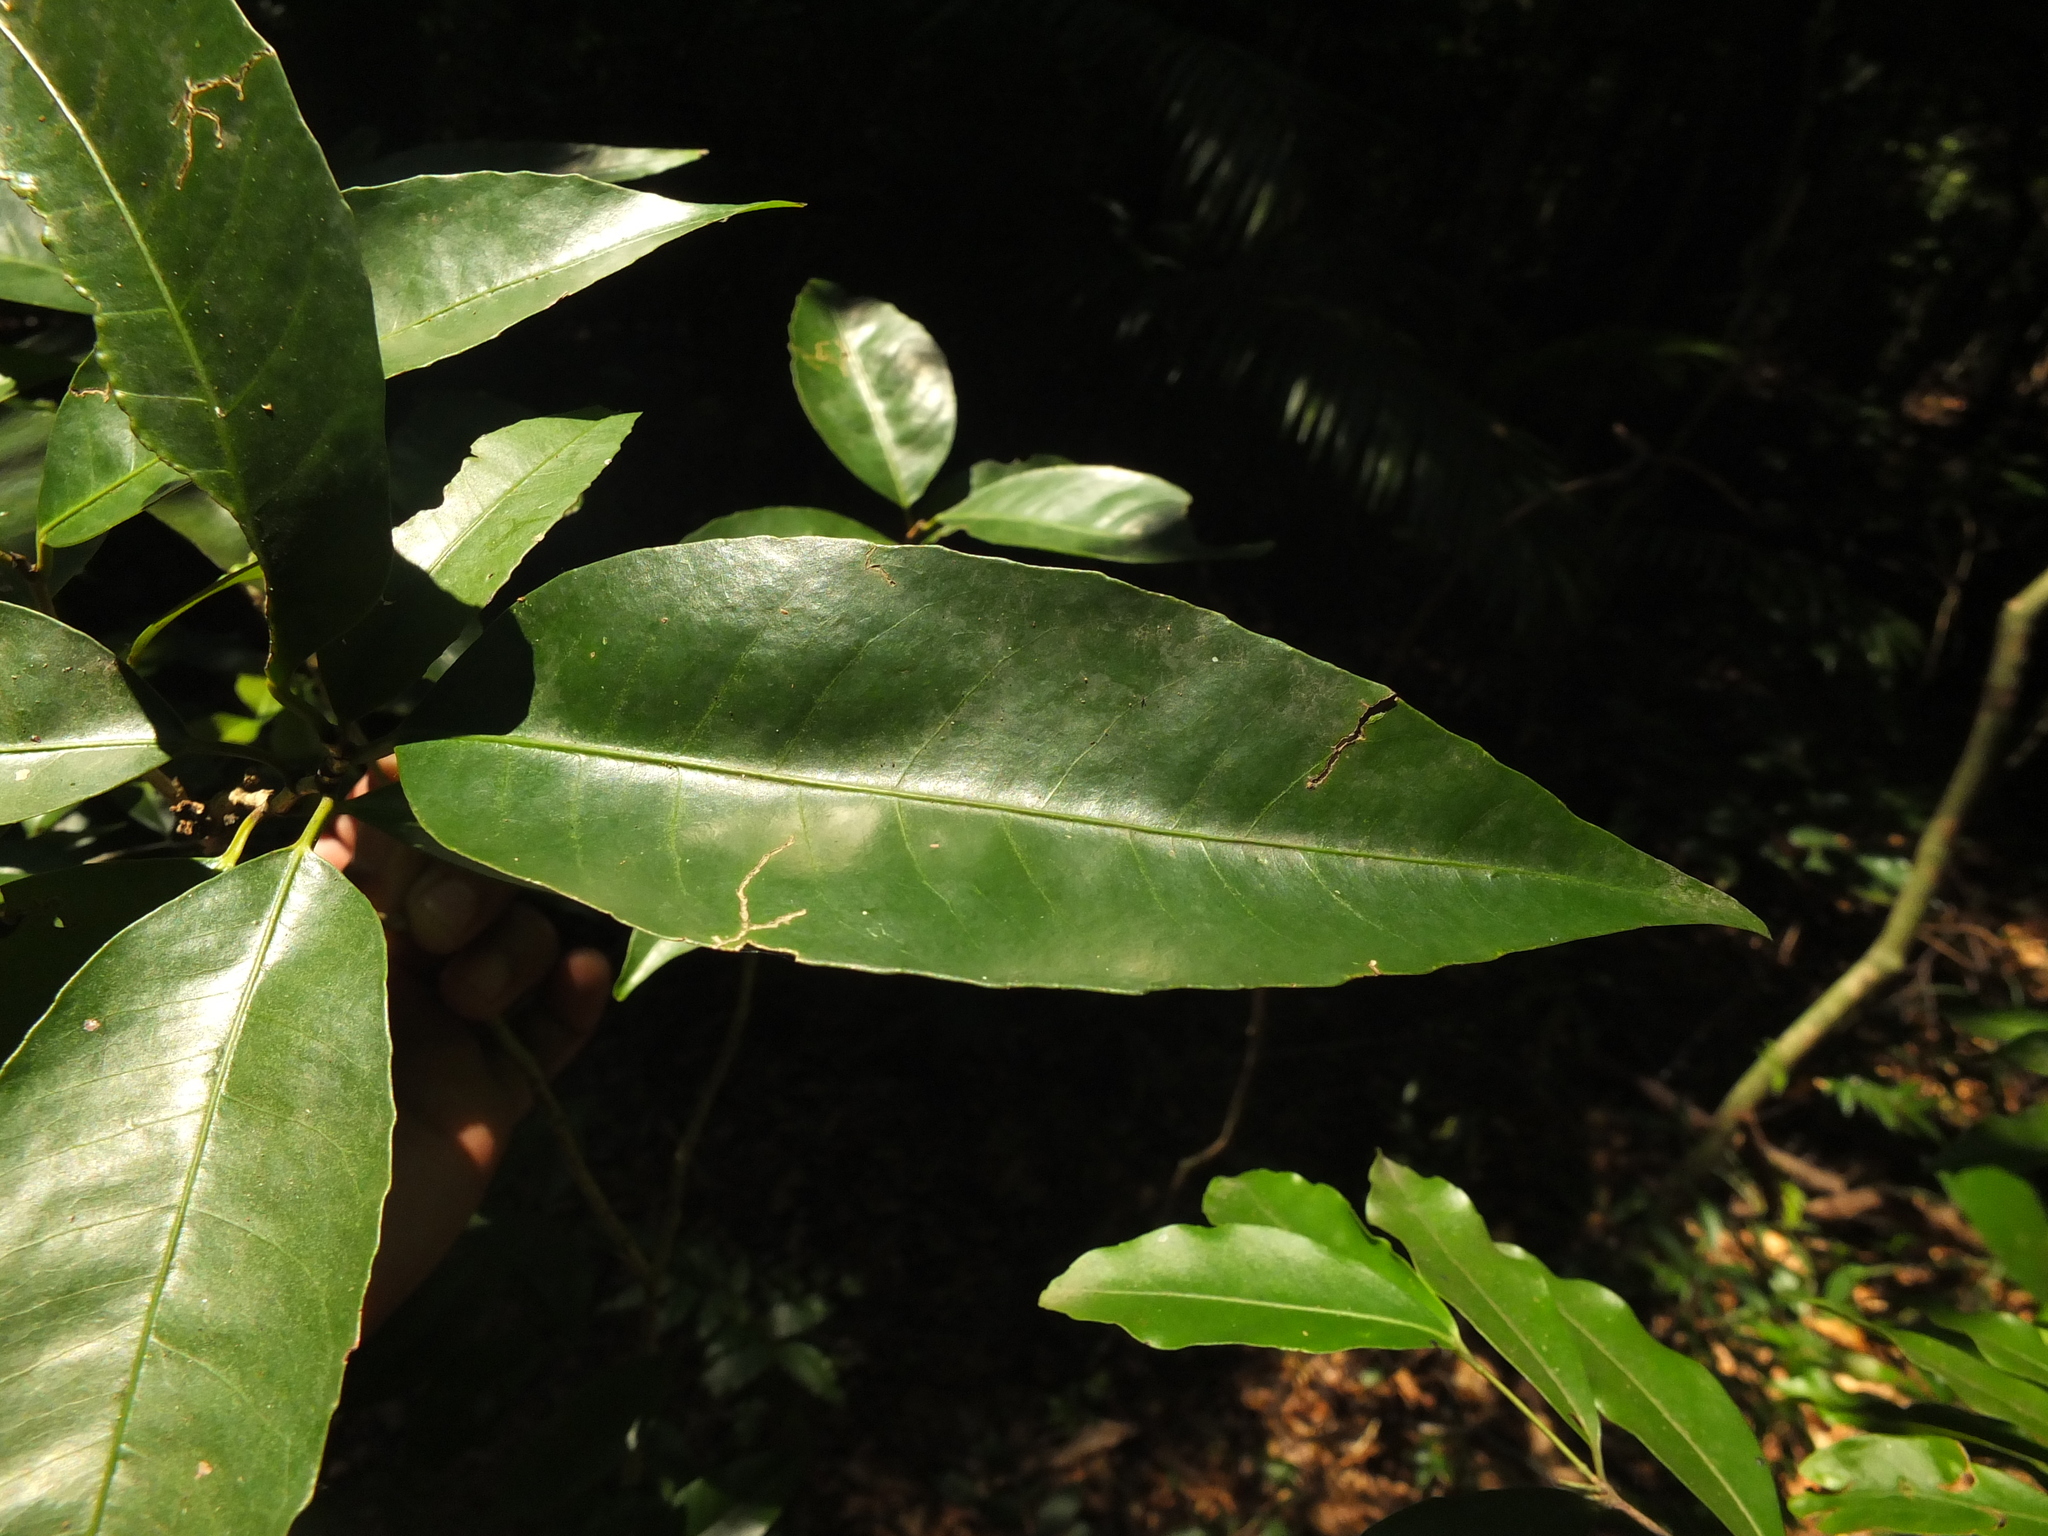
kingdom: Plantae
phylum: Tracheophyta
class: Magnoliopsida
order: Malpighiales
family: Euphorbiaceae
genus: Tritaxis
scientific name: Tritaxis beddomei
